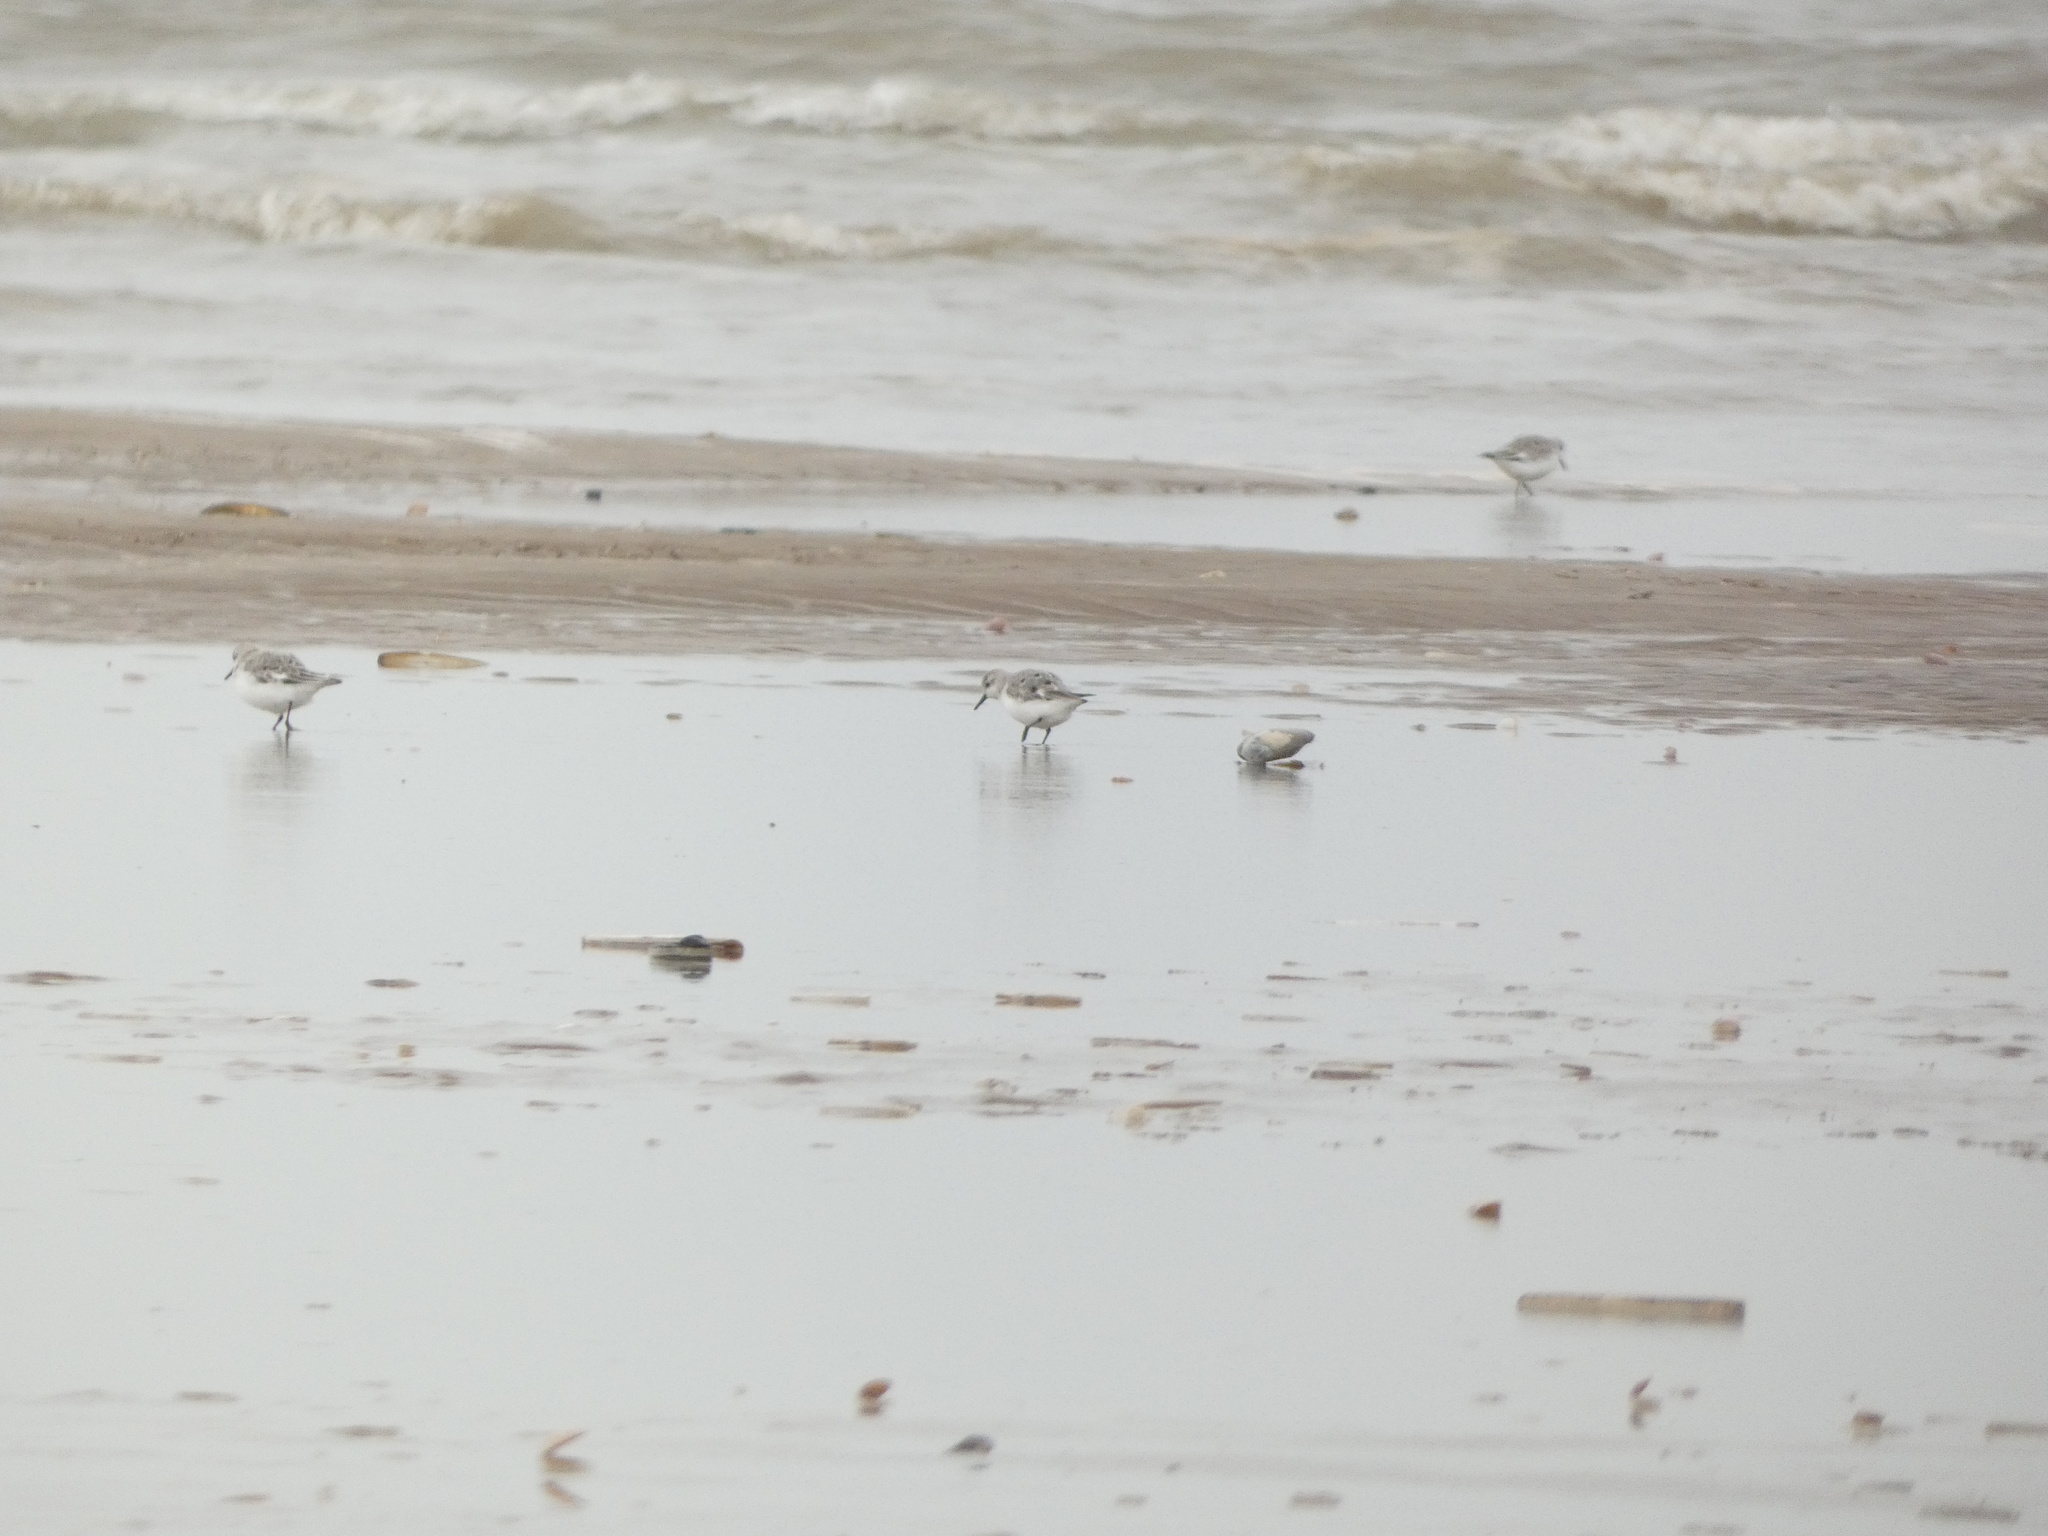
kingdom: Animalia
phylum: Chordata
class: Aves
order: Charadriiformes
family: Scolopacidae
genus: Calidris
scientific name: Calidris alba
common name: Sanderling
